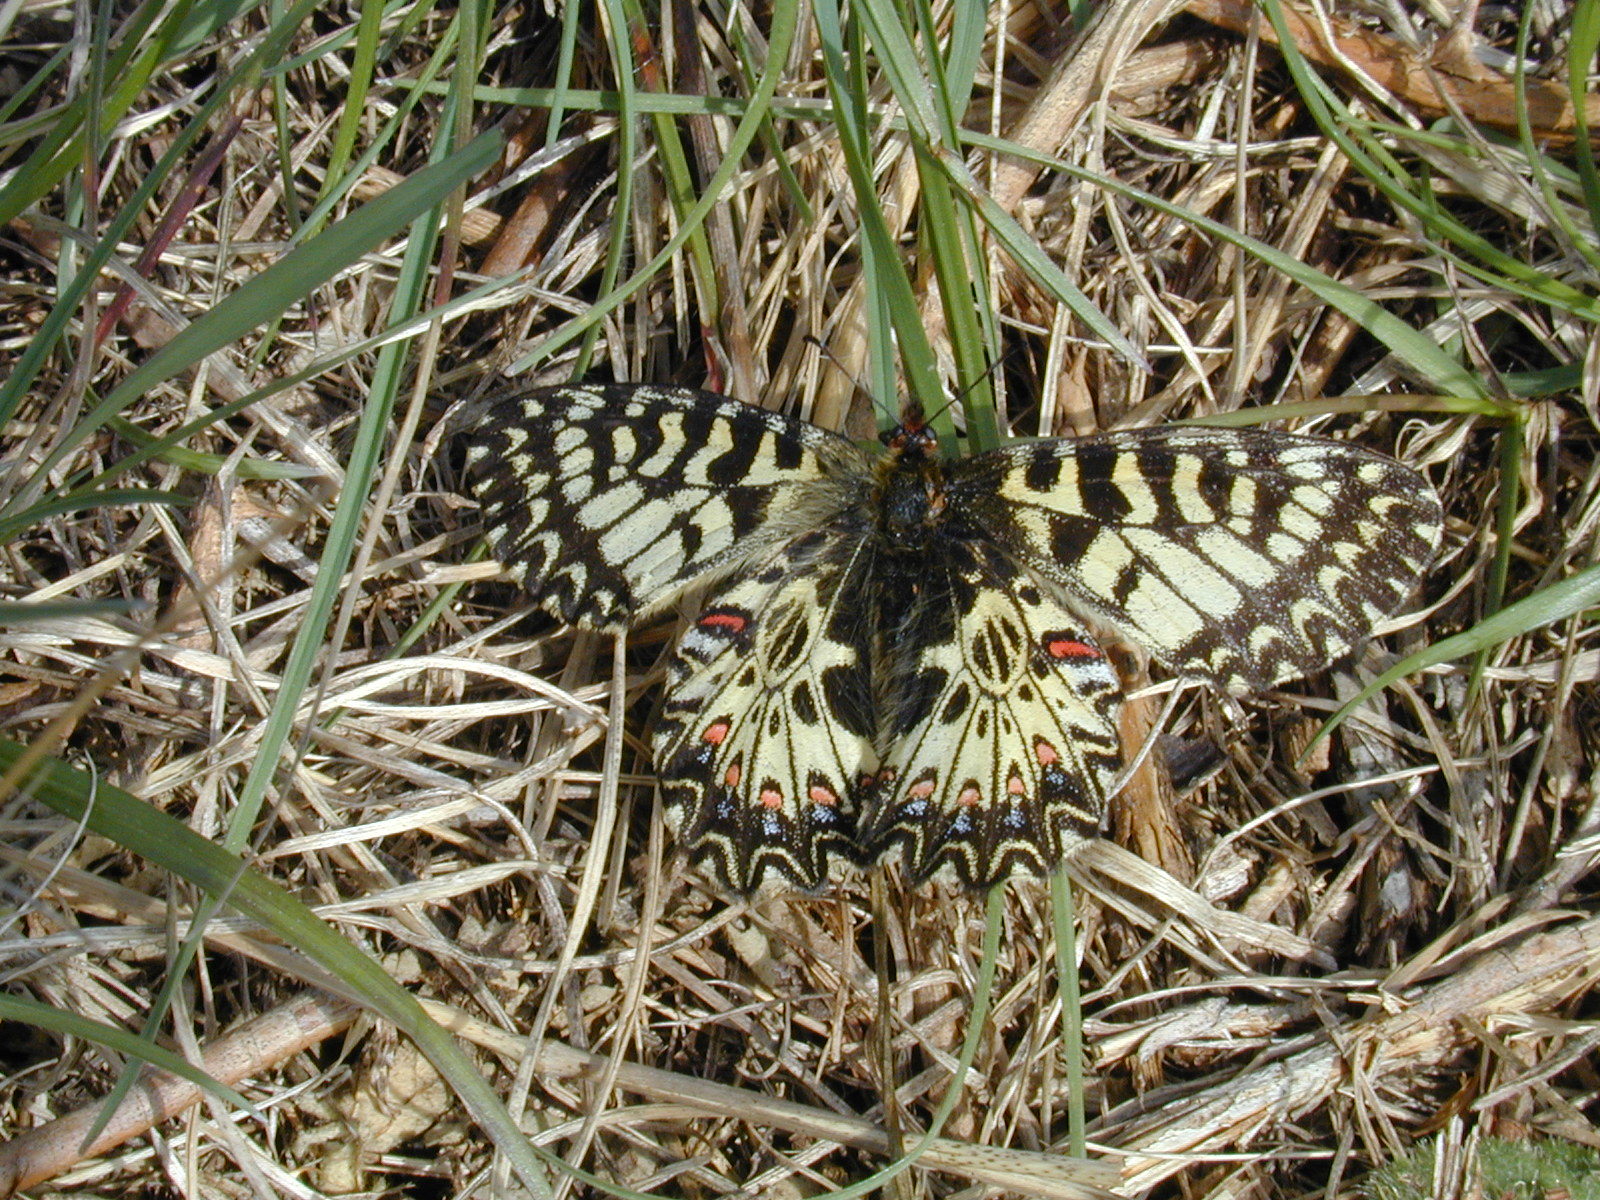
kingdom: Animalia
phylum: Arthropoda
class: Insecta
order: Lepidoptera
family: Papilionidae
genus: Zerynthia
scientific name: Zerynthia polyxena
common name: Southern festoon
